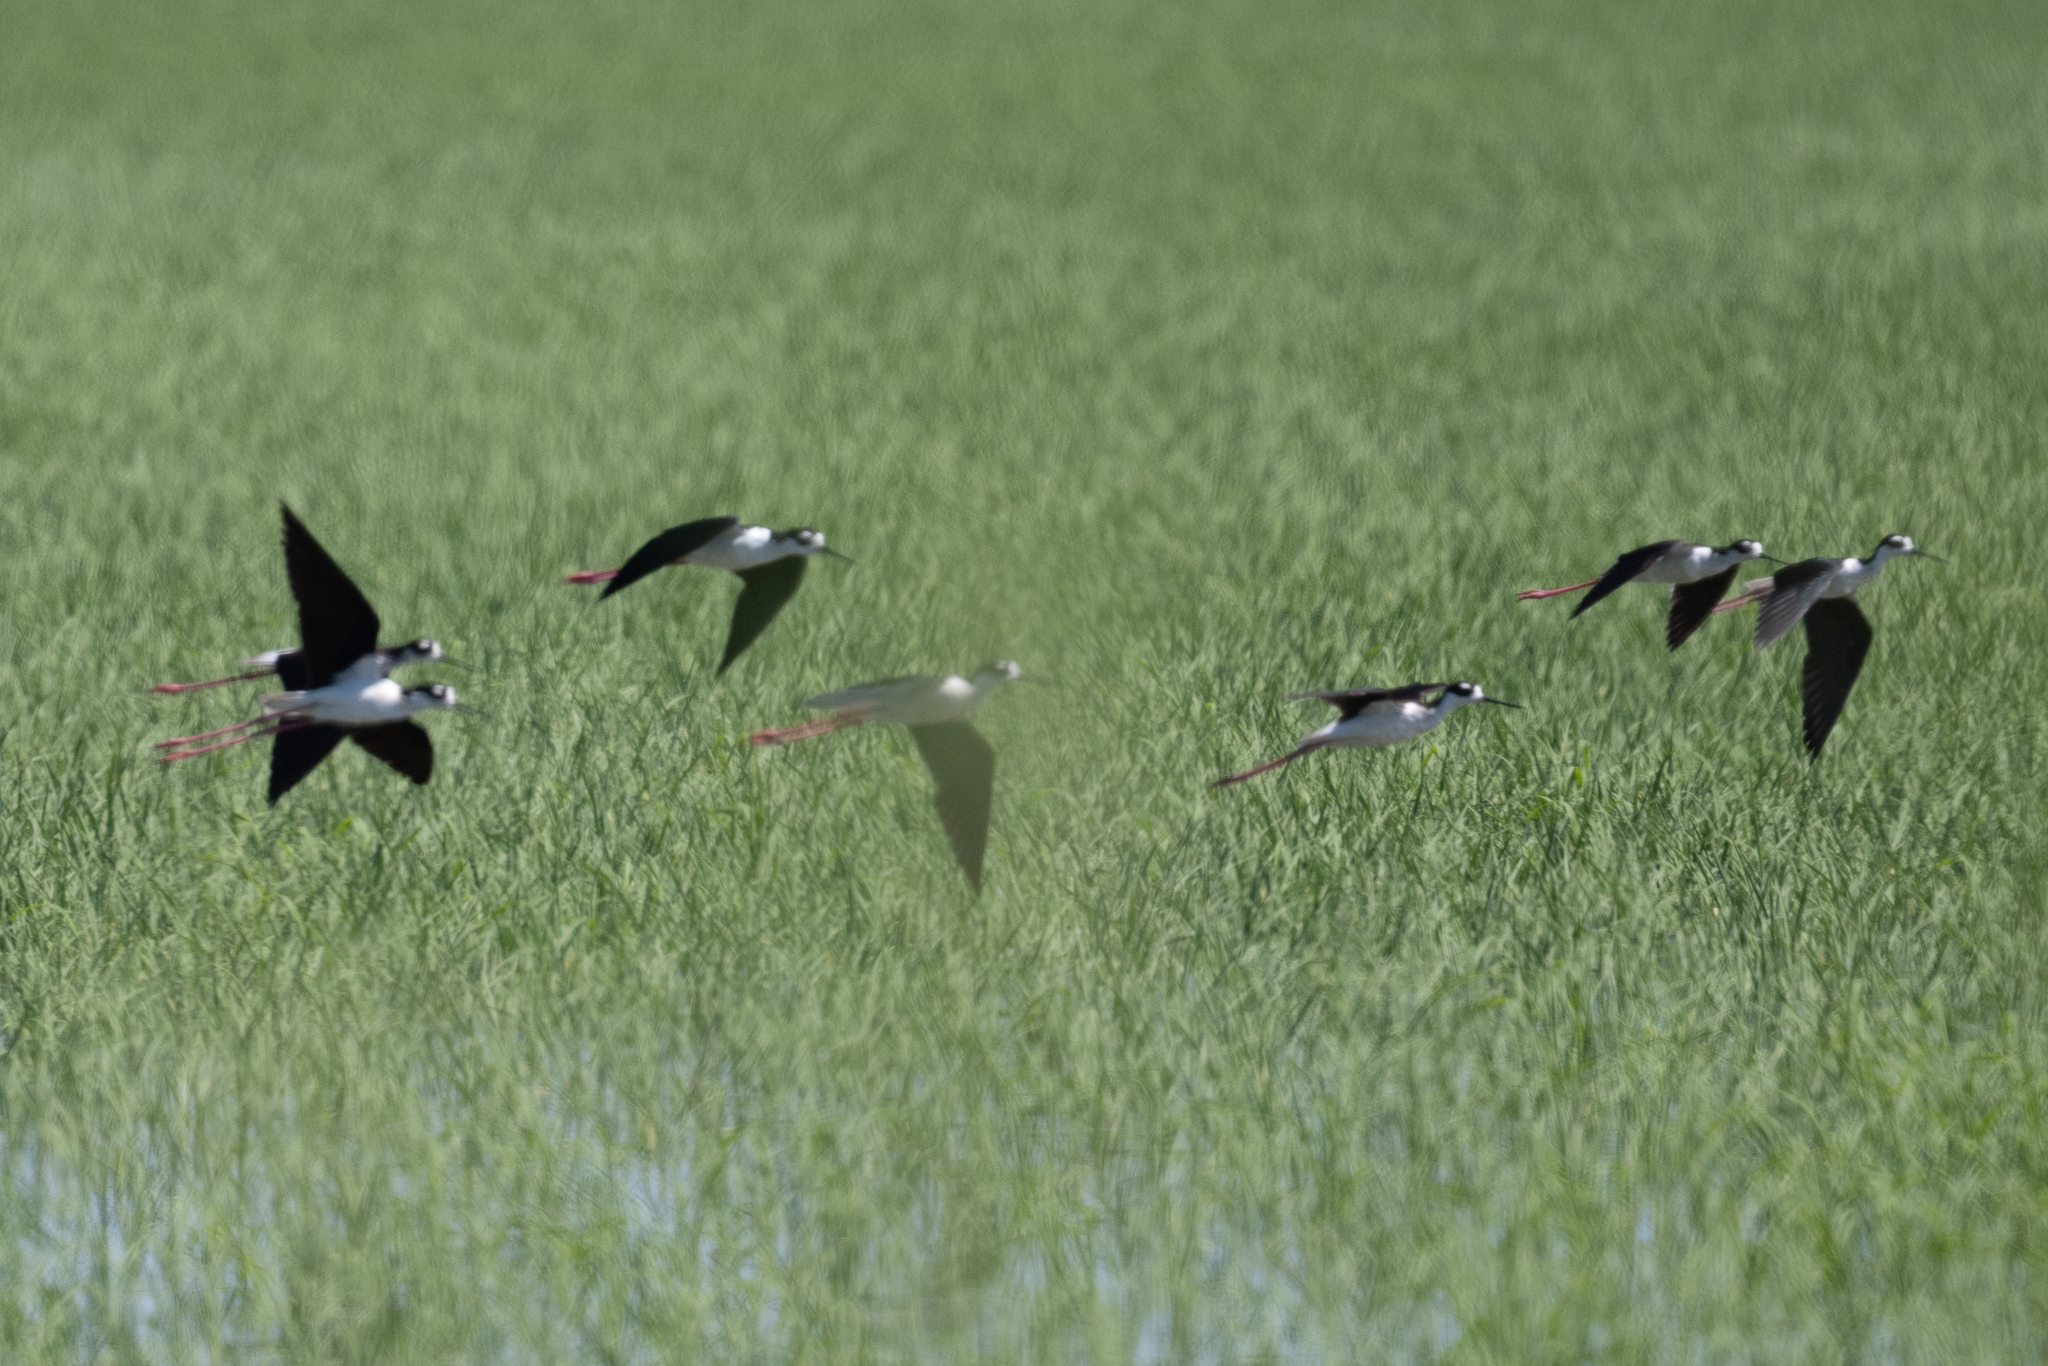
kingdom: Animalia
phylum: Chordata
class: Aves
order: Charadriiformes
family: Recurvirostridae
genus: Himantopus
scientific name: Himantopus mexicanus
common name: Black-necked stilt
